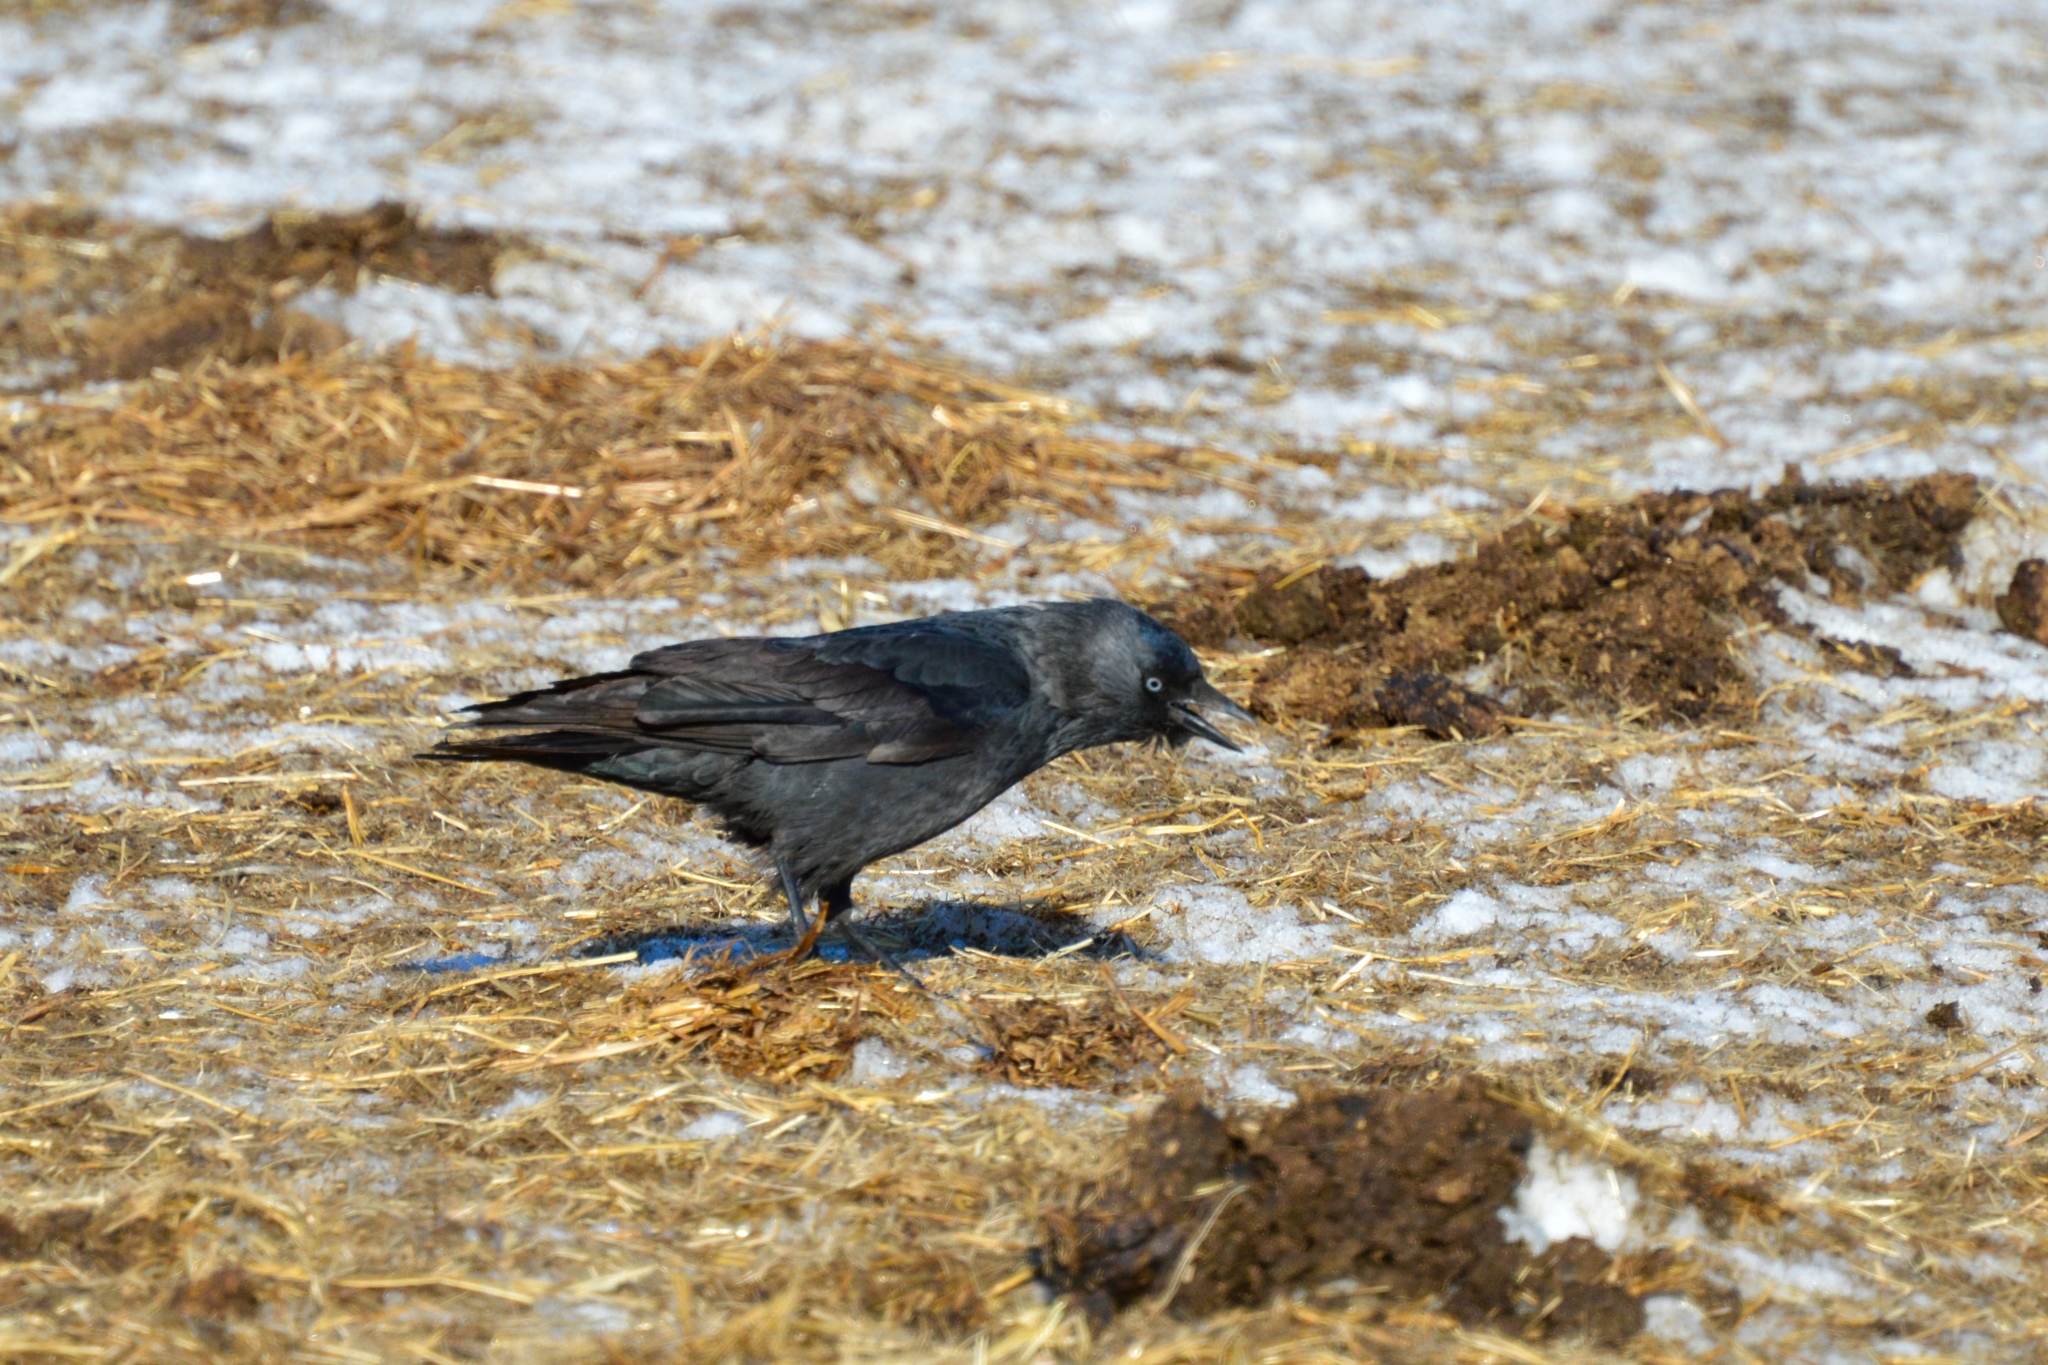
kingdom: Animalia
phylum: Chordata
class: Aves
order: Passeriformes
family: Corvidae
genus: Coloeus
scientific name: Coloeus monedula
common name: Western jackdaw
